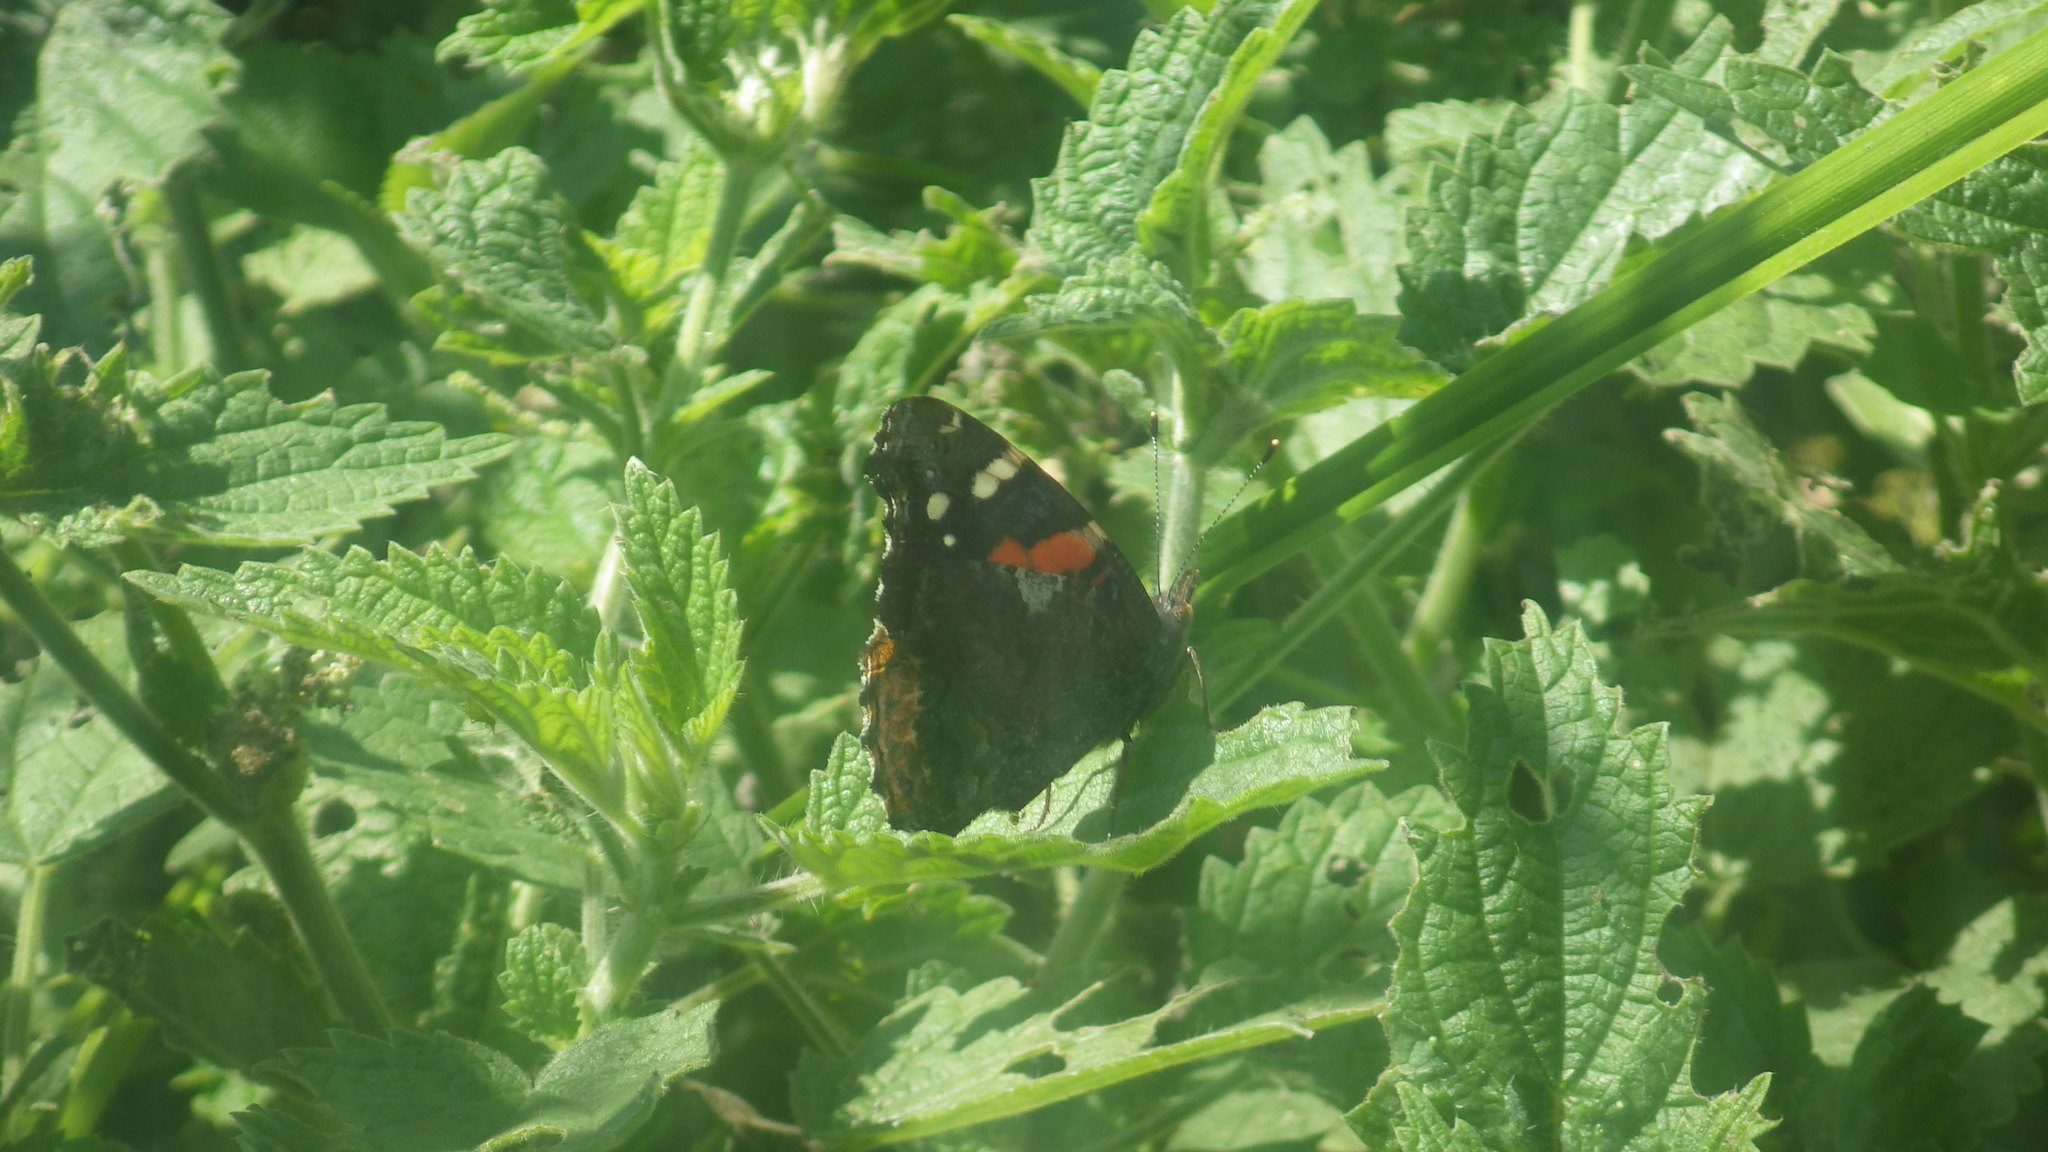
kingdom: Animalia
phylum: Arthropoda
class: Insecta
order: Lepidoptera
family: Nymphalidae
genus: Vanessa
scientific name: Vanessa atalanta
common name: Red admiral
